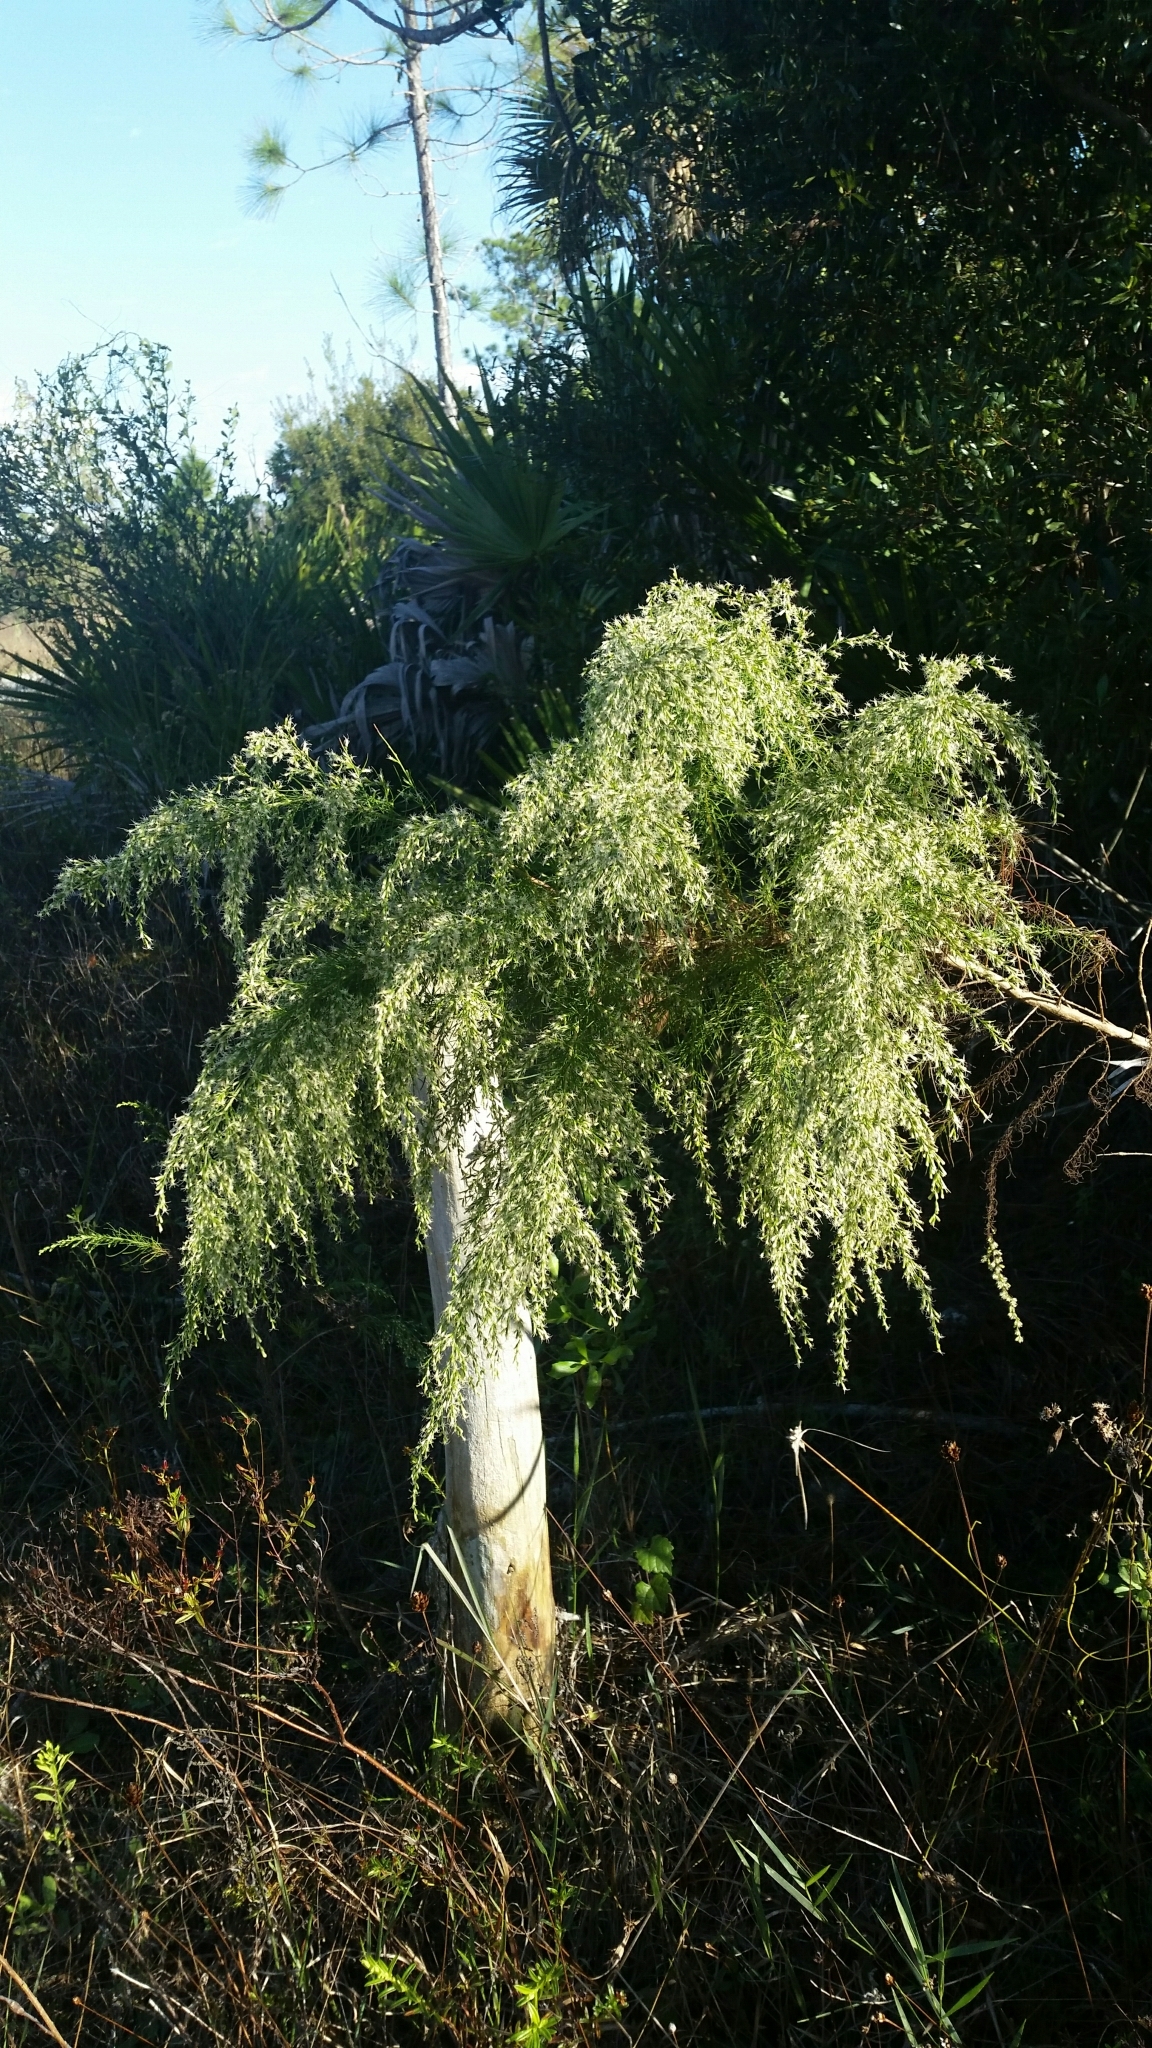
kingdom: Plantae
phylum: Tracheophyta
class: Magnoliopsida
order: Asterales
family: Asteraceae
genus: Eupatorium
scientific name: Eupatorium capillifolium
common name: Dog-fennel
